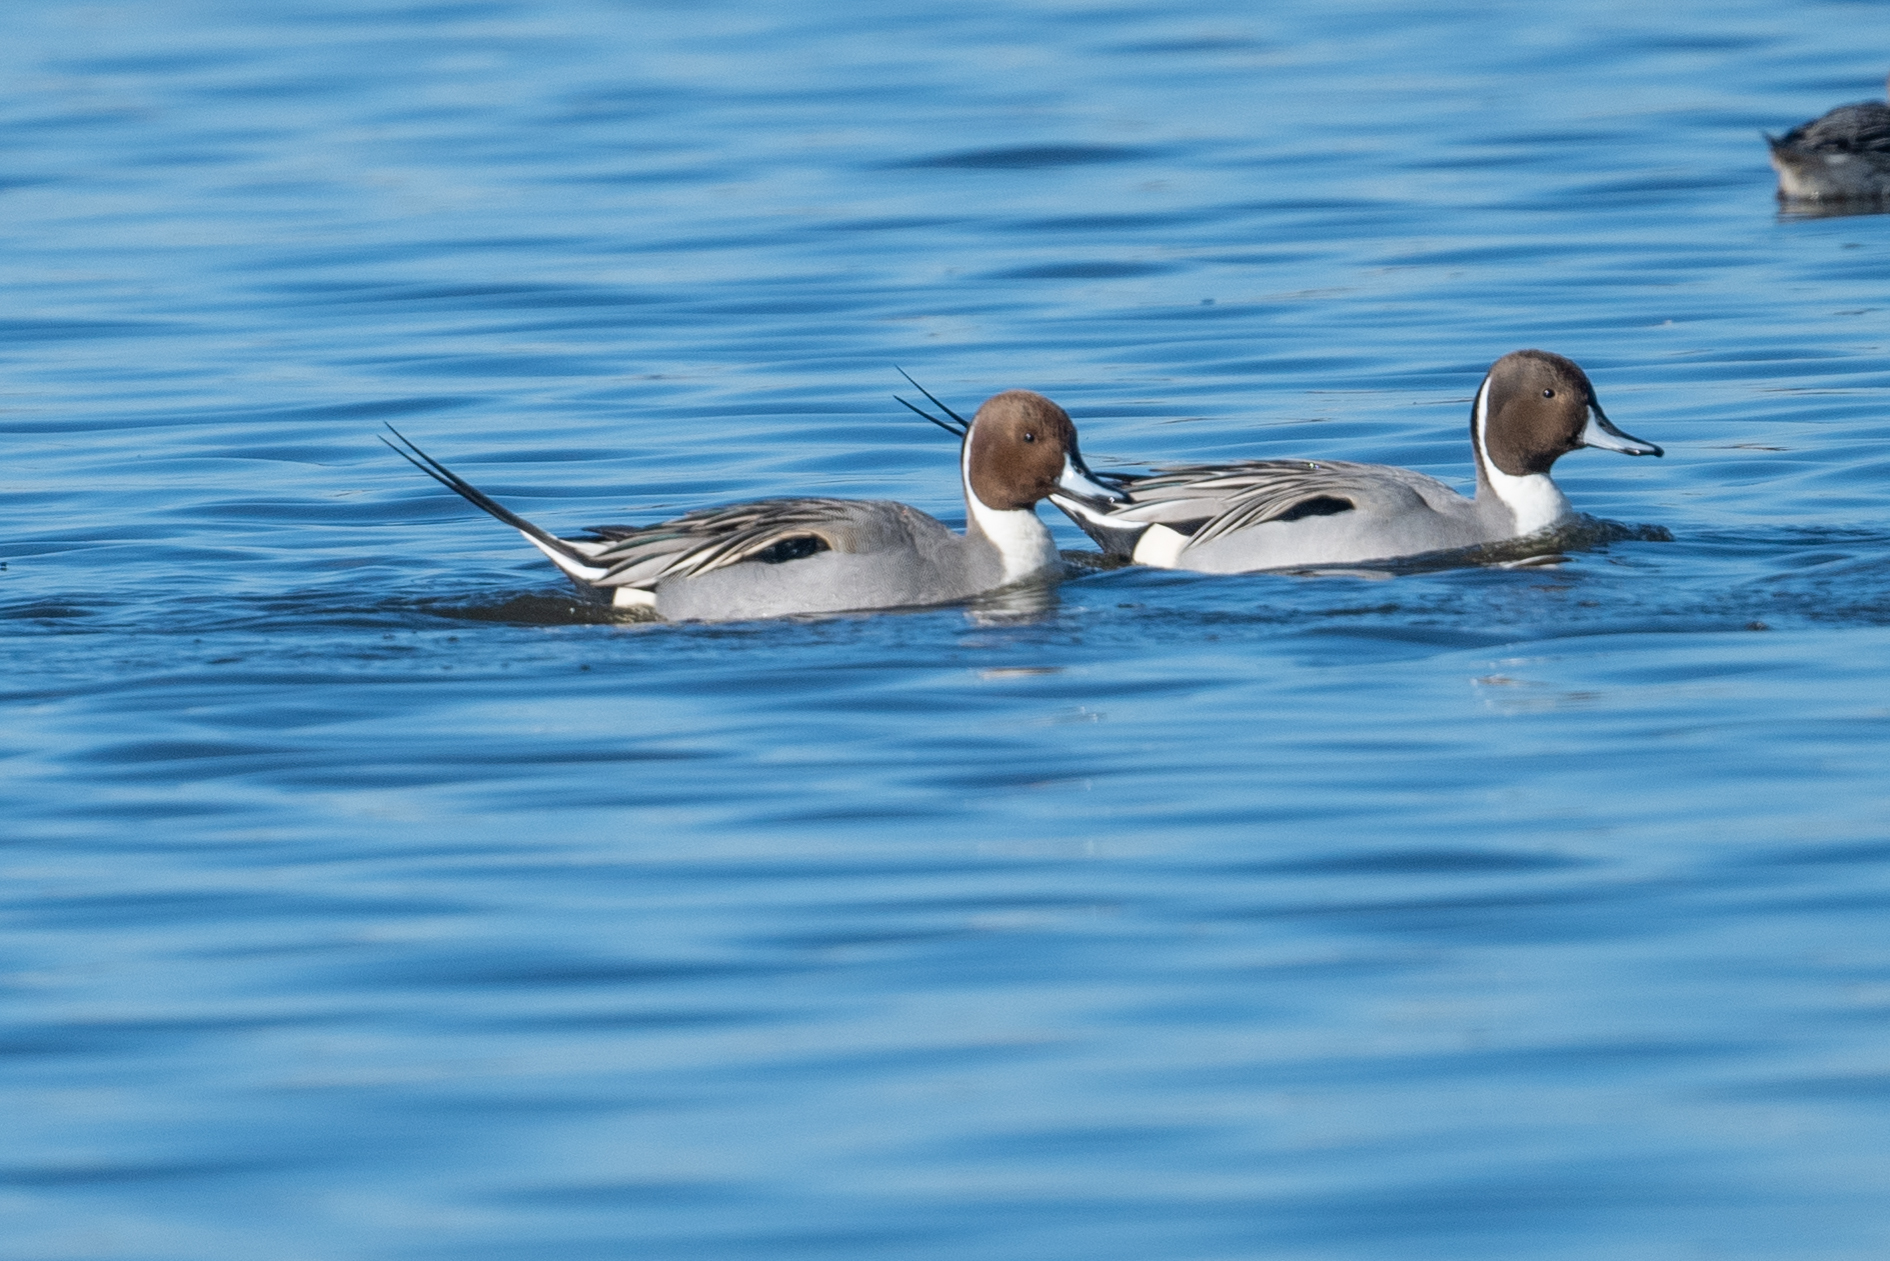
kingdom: Animalia
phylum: Chordata
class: Aves
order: Anseriformes
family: Anatidae
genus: Anas
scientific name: Anas acuta
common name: Northern pintail
